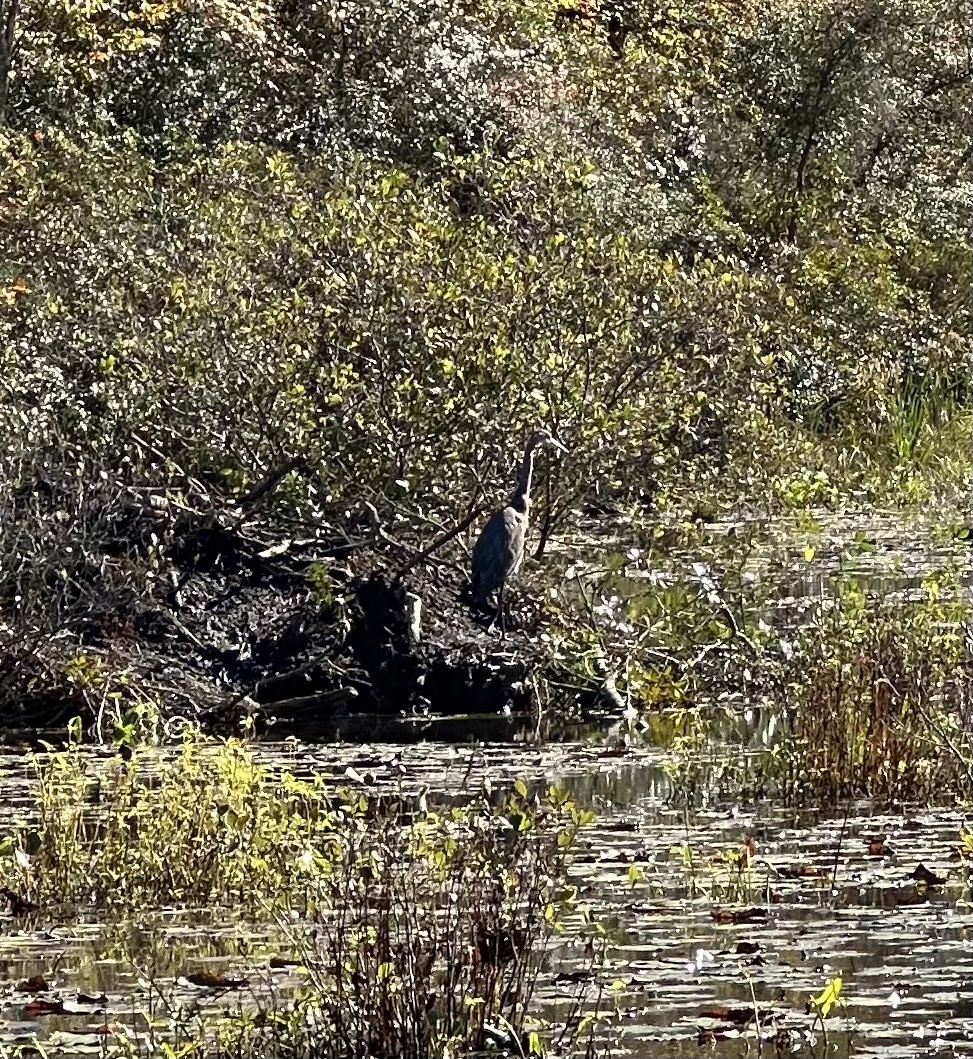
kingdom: Animalia
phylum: Chordata
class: Aves
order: Pelecaniformes
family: Ardeidae
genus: Ardea
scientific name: Ardea herodias
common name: Great blue heron
